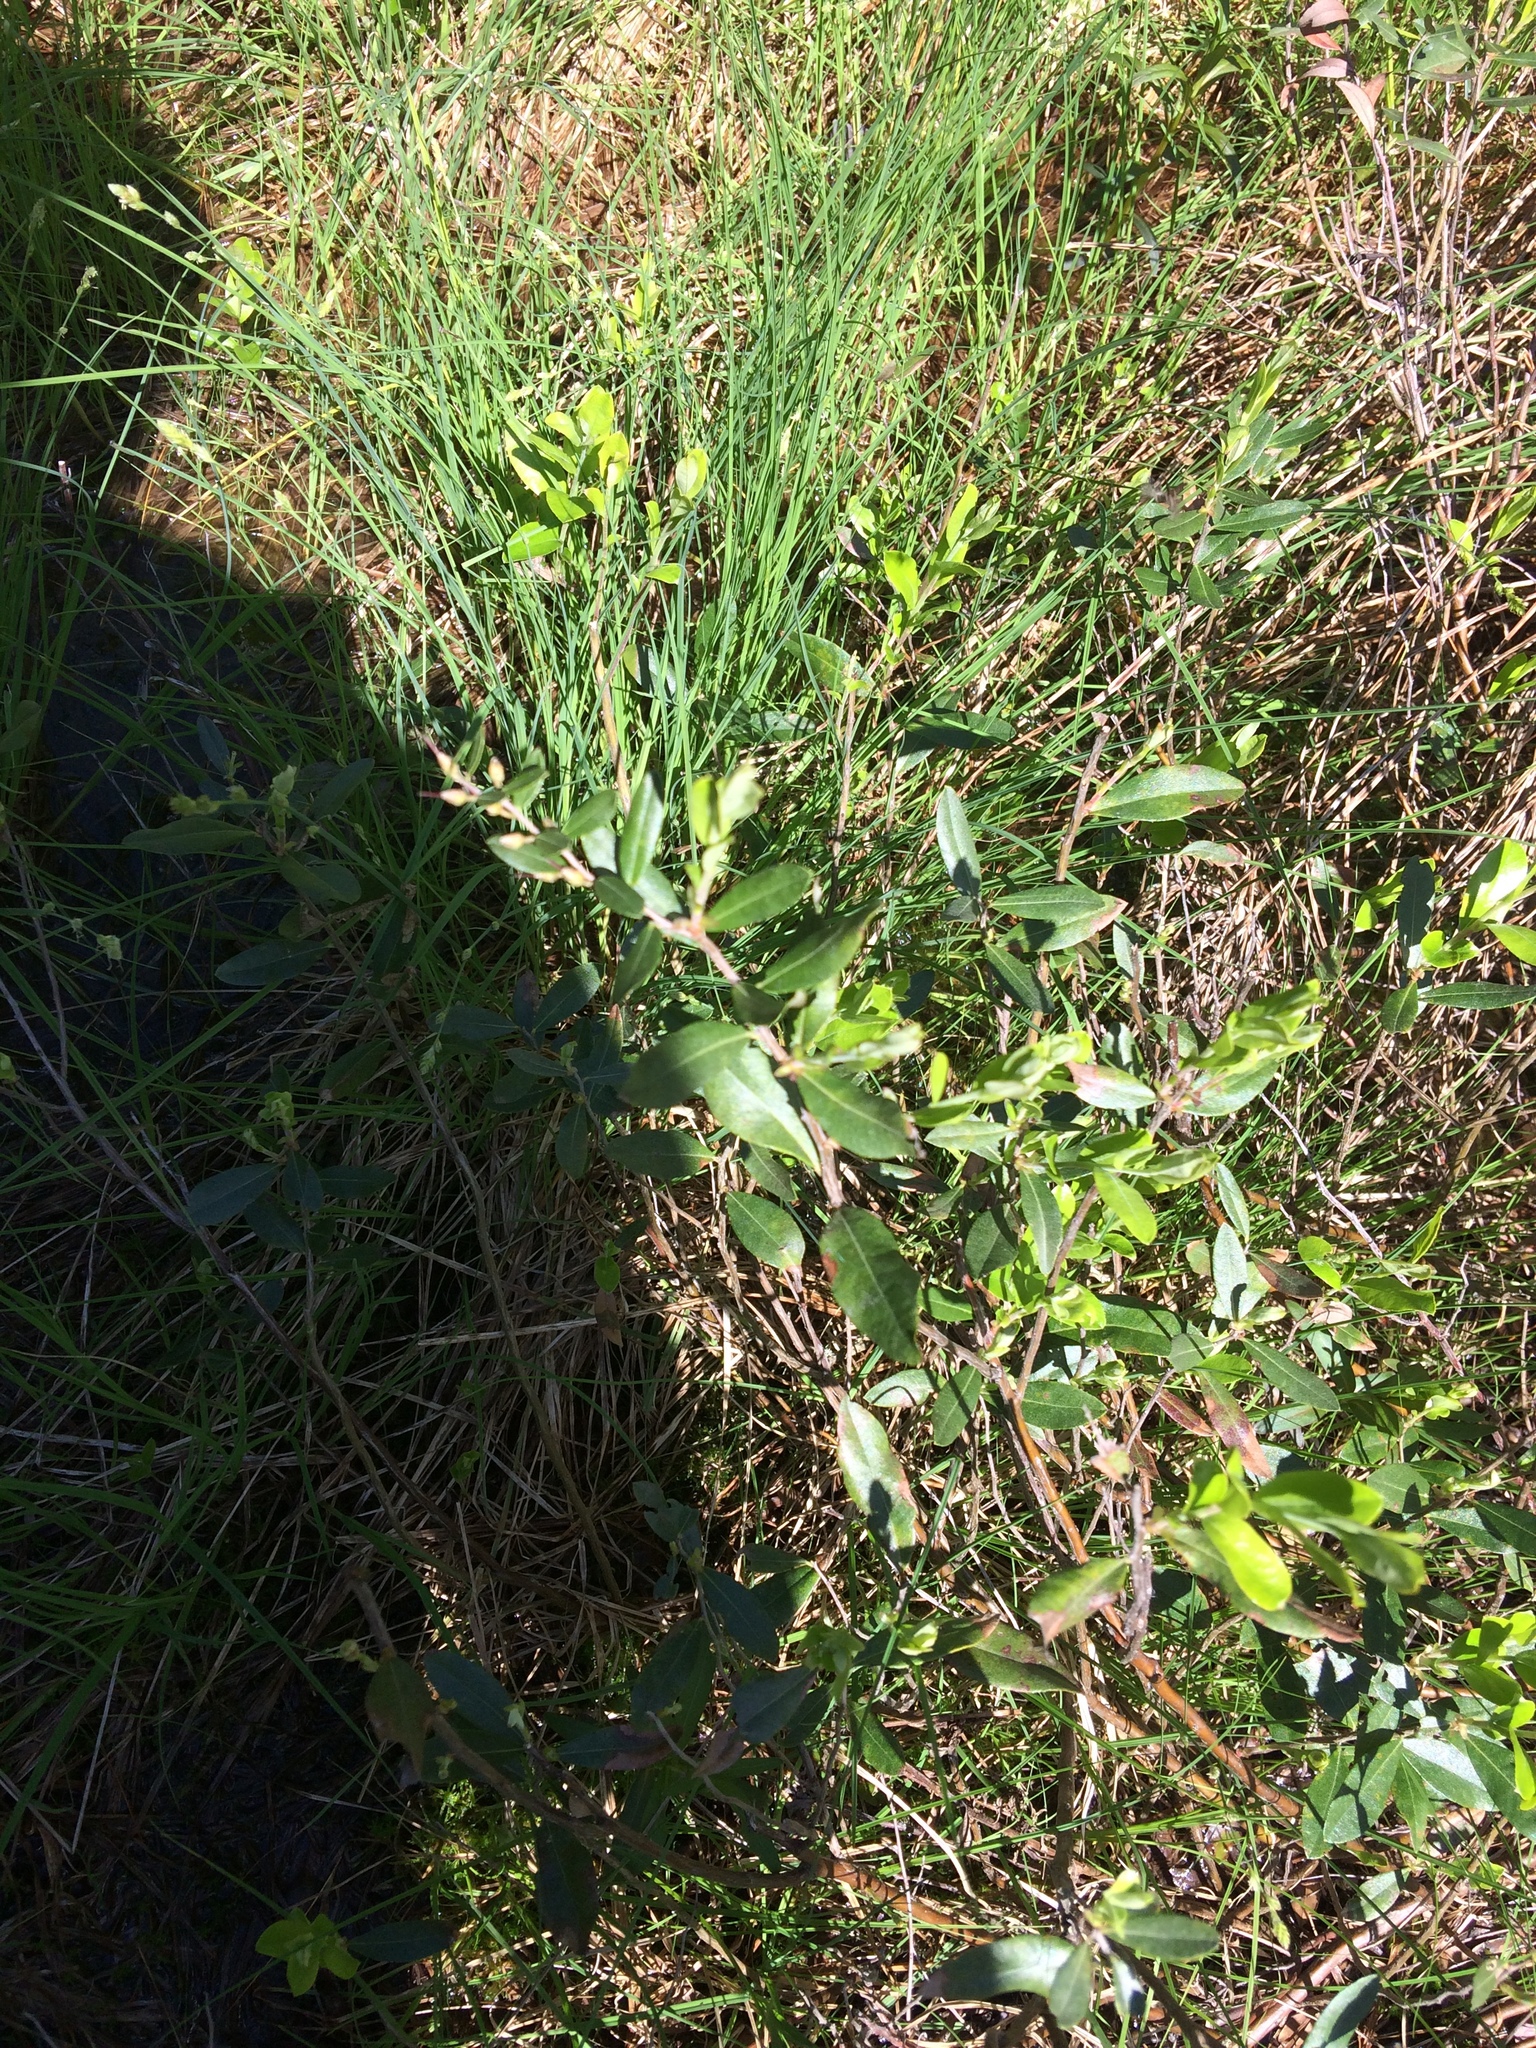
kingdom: Plantae
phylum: Tracheophyta
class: Magnoliopsida
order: Ericales
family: Ericaceae
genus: Chamaedaphne
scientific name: Chamaedaphne calyculata
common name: Leatherleaf
